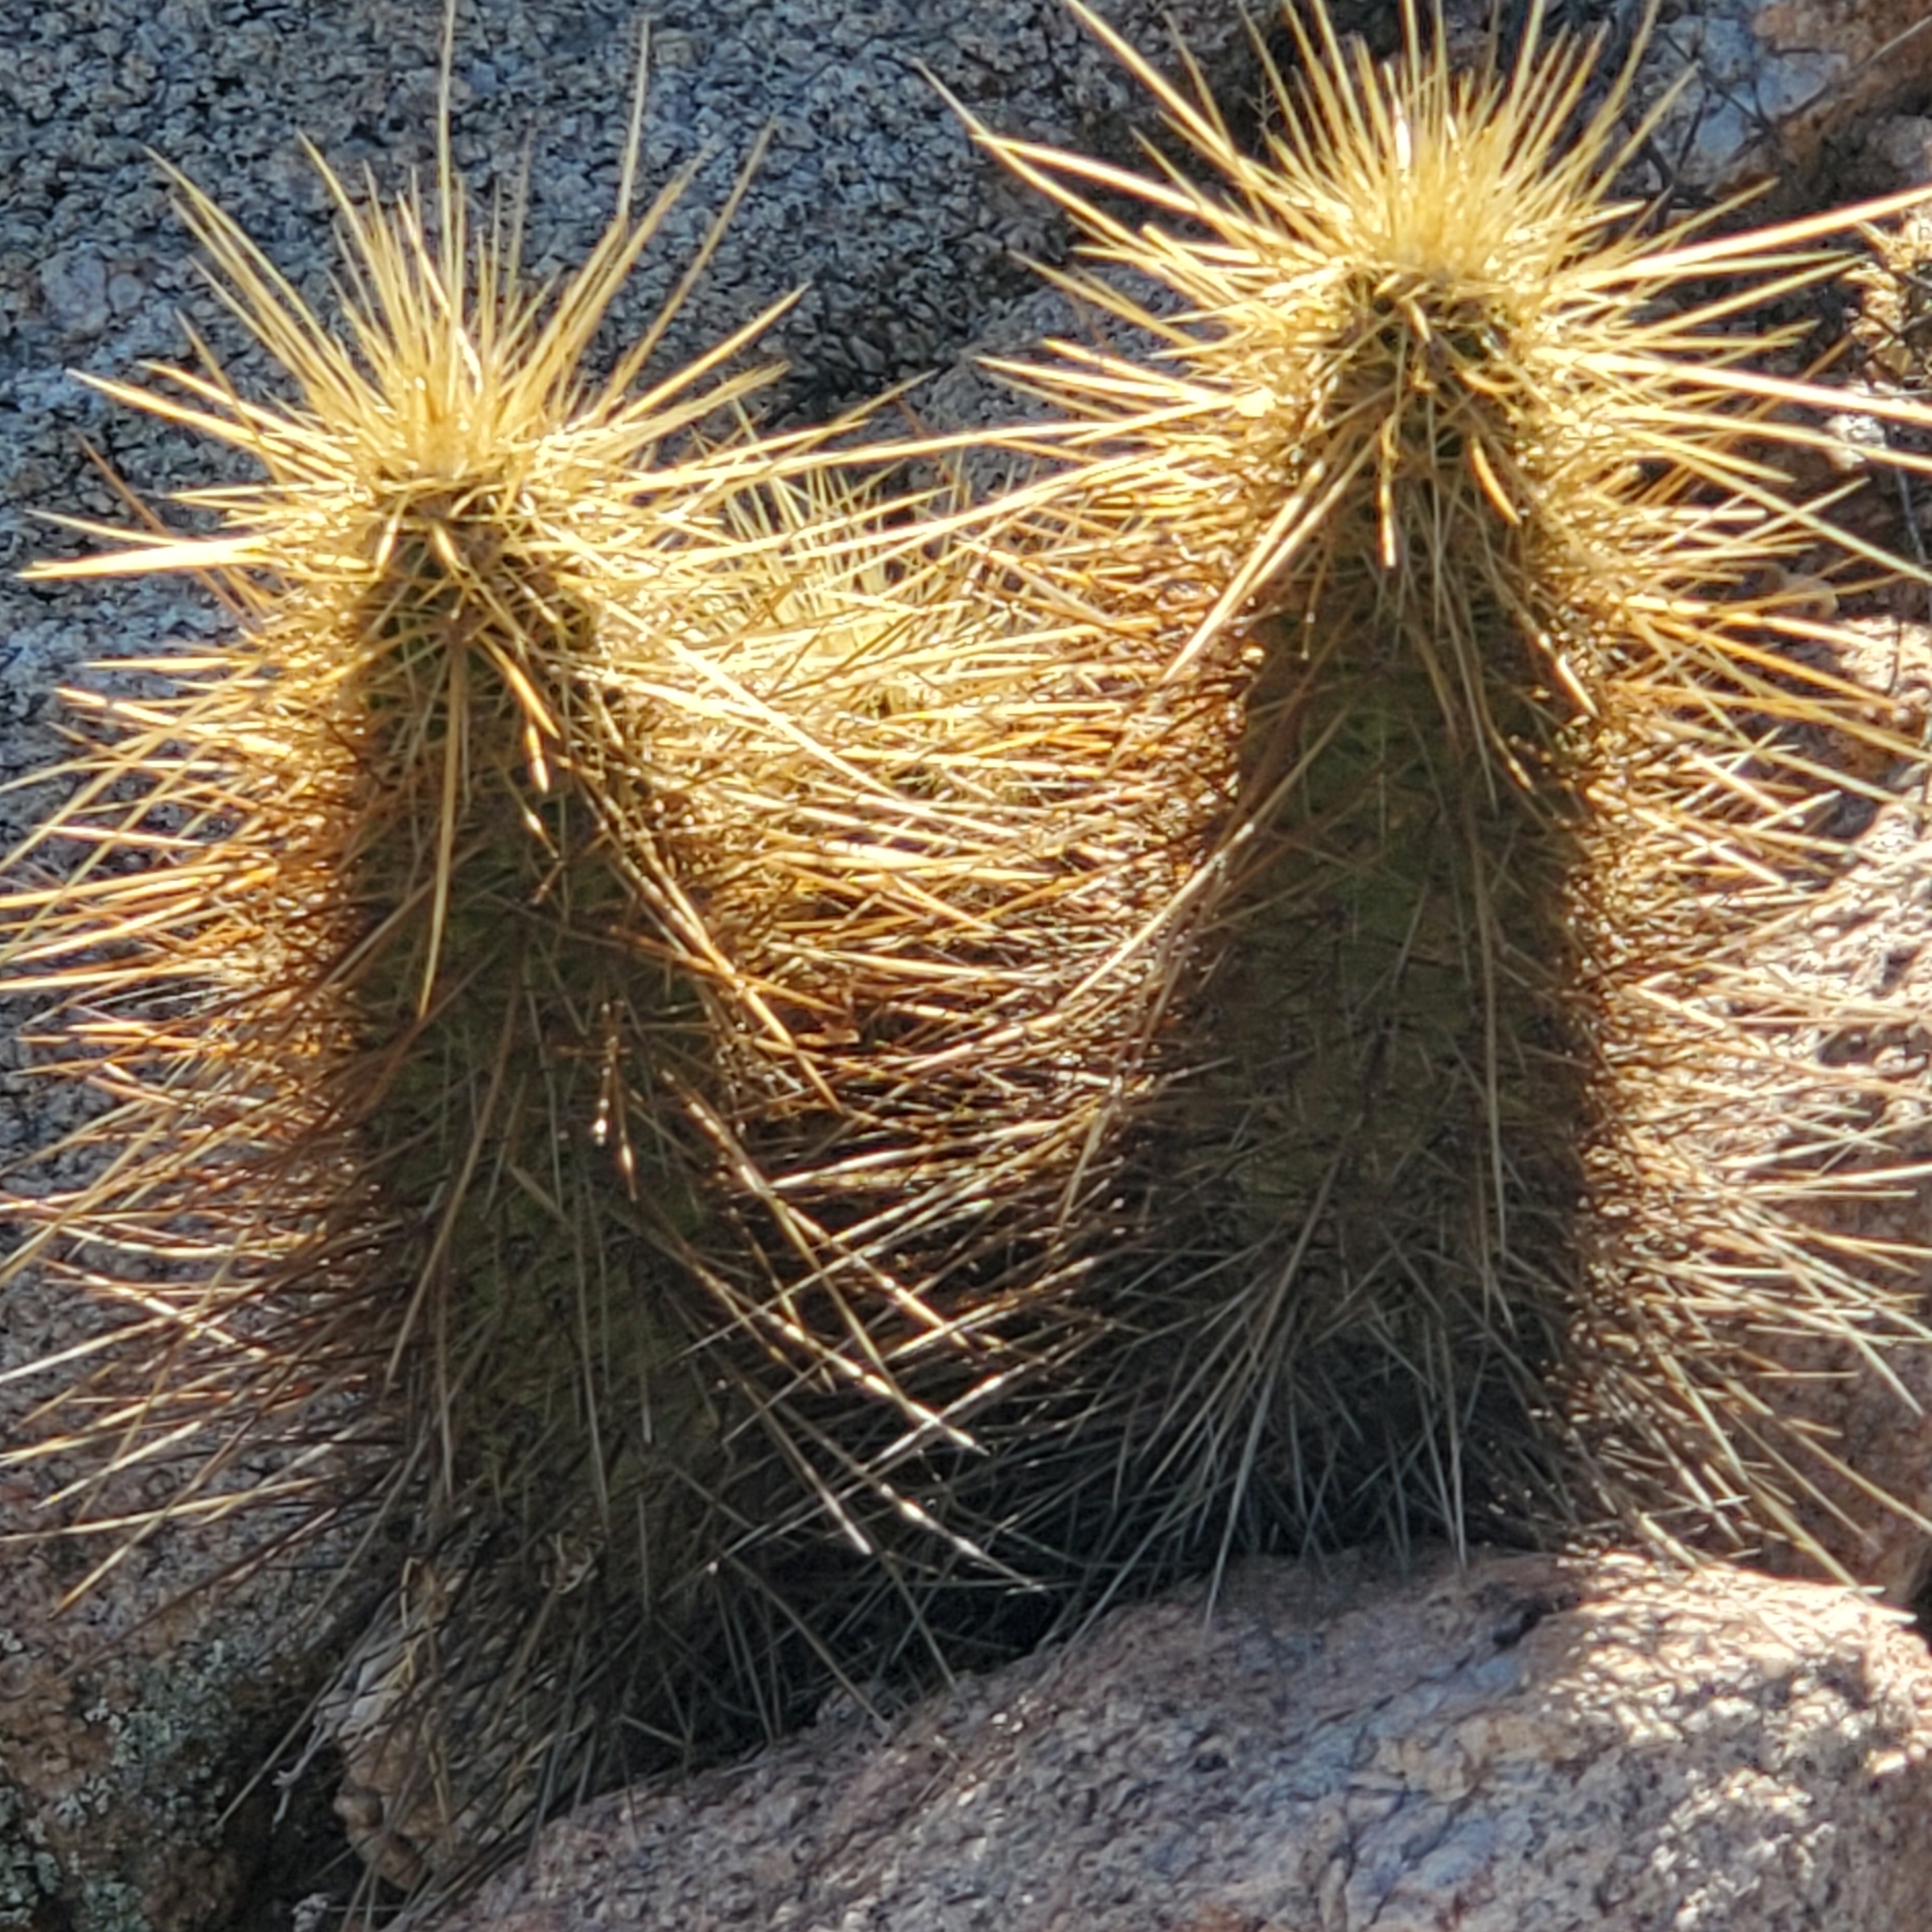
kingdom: Plantae
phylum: Tracheophyta
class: Magnoliopsida
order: Caryophyllales
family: Cactaceae
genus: Echinocereus
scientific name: Echinocereus nicholii
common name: Nichol's hedgehog cactus
